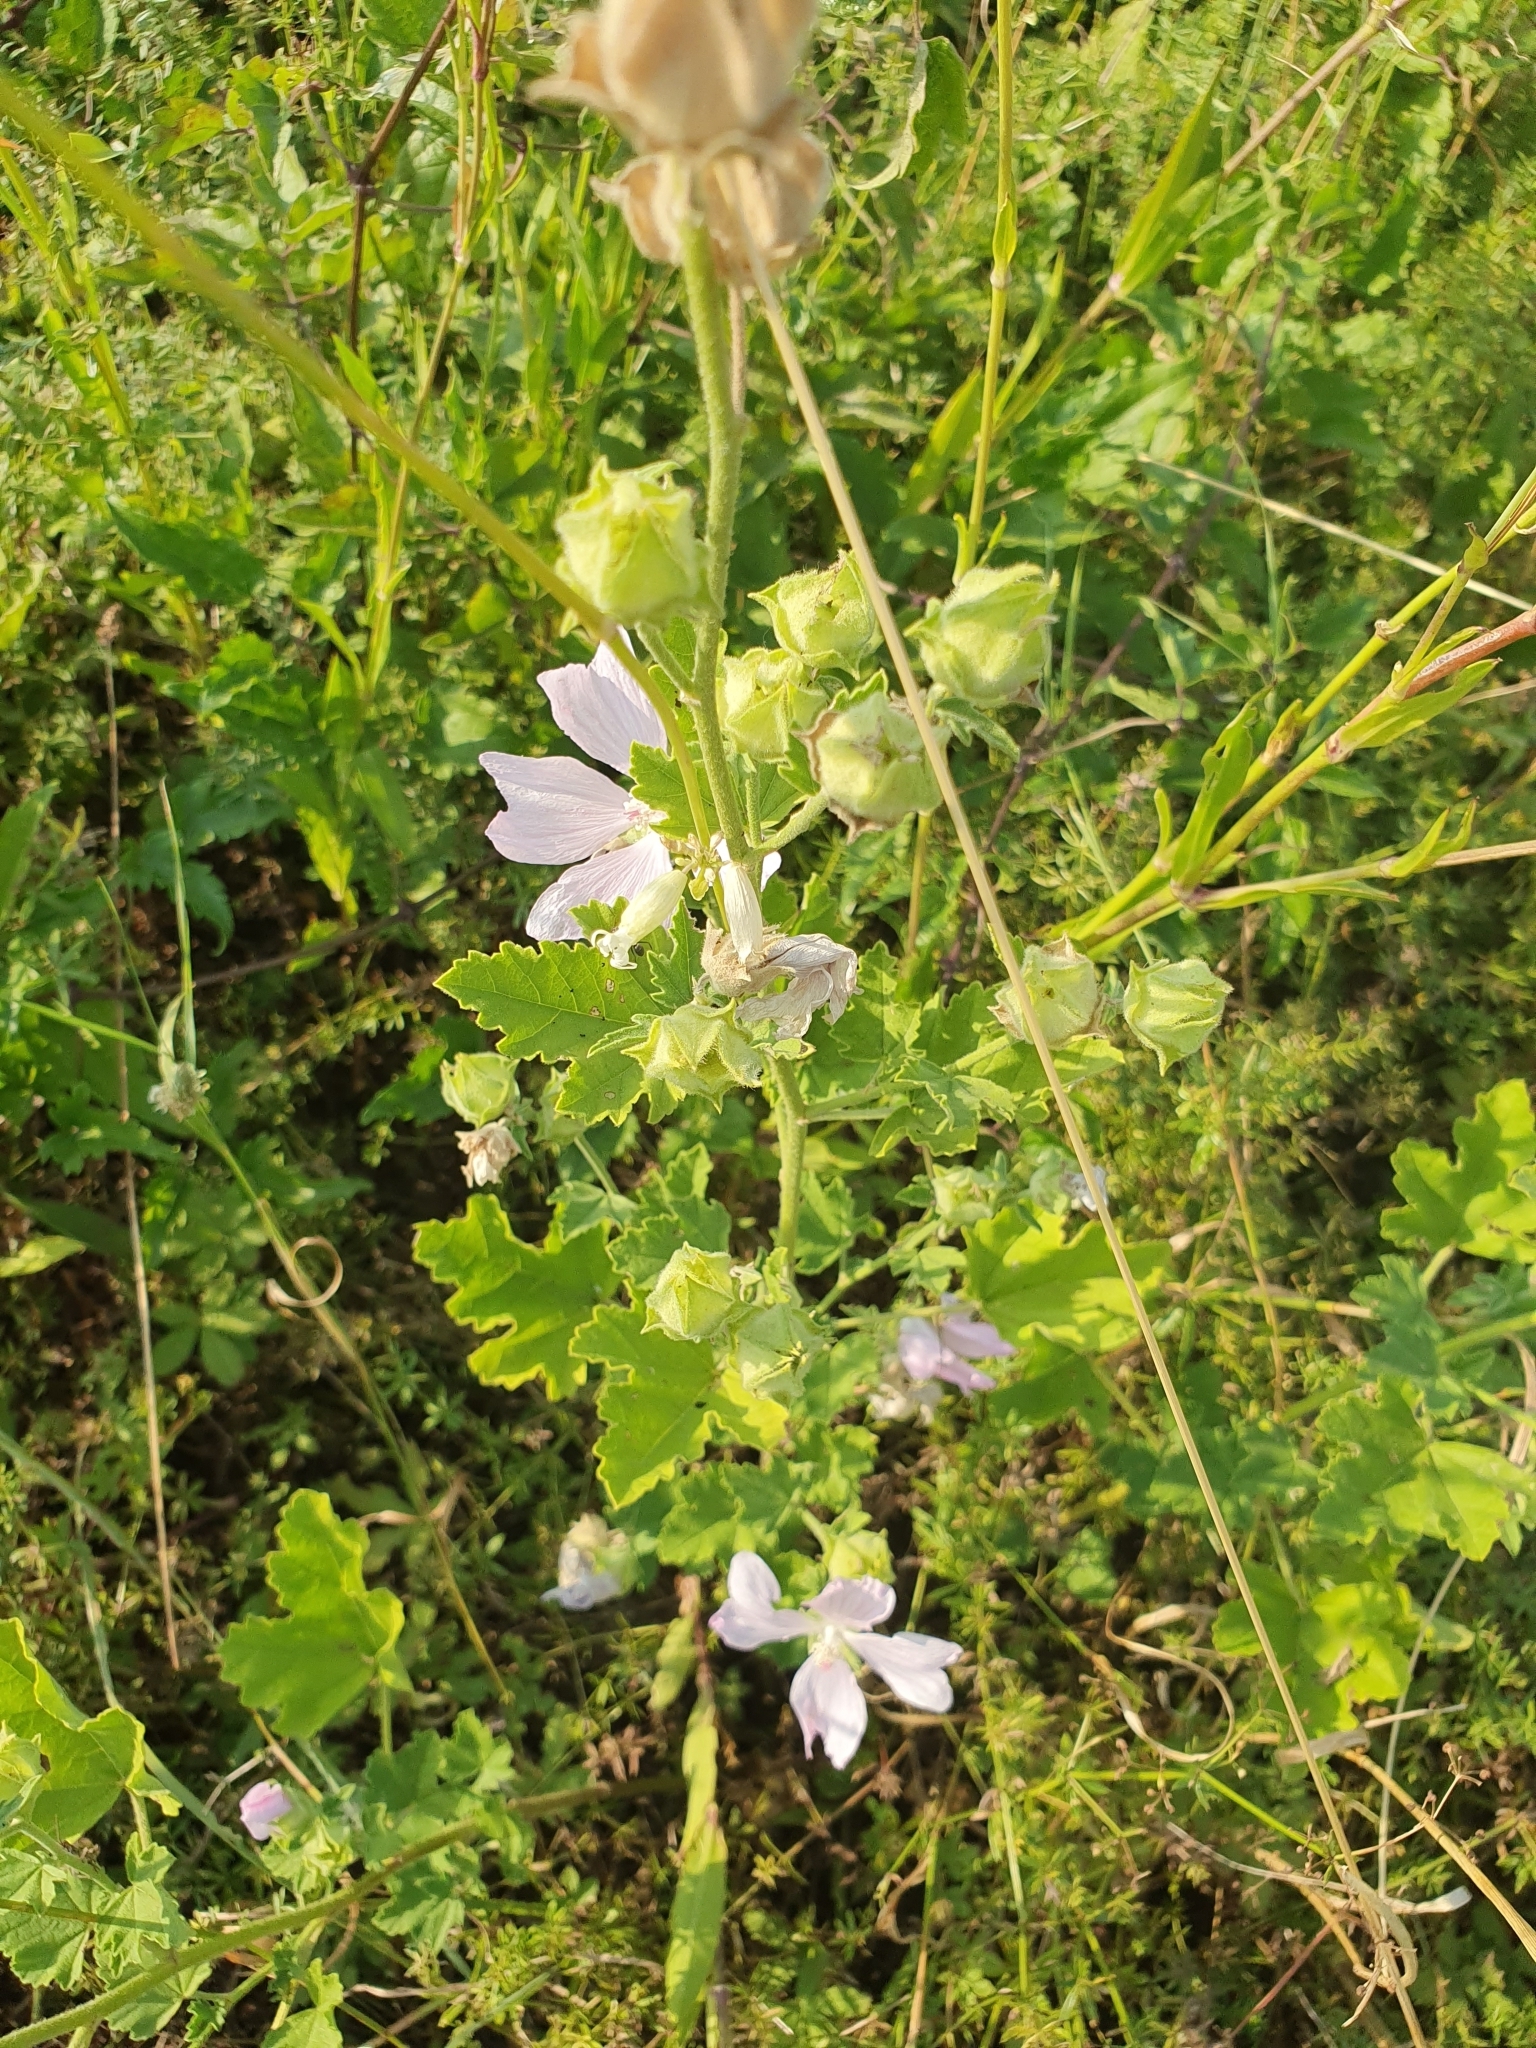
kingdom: Plantae
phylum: Tracheophyta
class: Magnoliopsida
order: Malvales
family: Malvaceae
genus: Malva
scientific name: Malva thuringiaca
